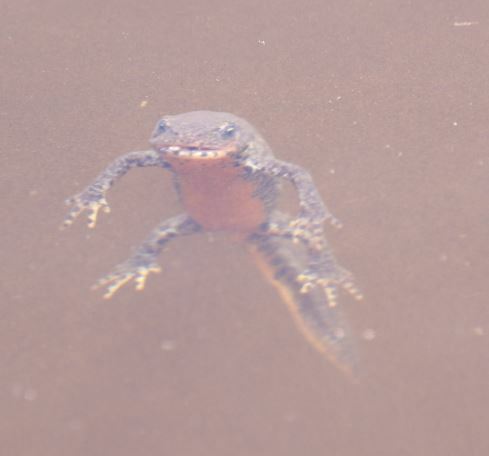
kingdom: Animalia
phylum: Chordata
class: Amphibia
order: Caudata
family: Salamandridae
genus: Ichthyosaura
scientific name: Ichthyosaura alpestris
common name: Alpine newt
